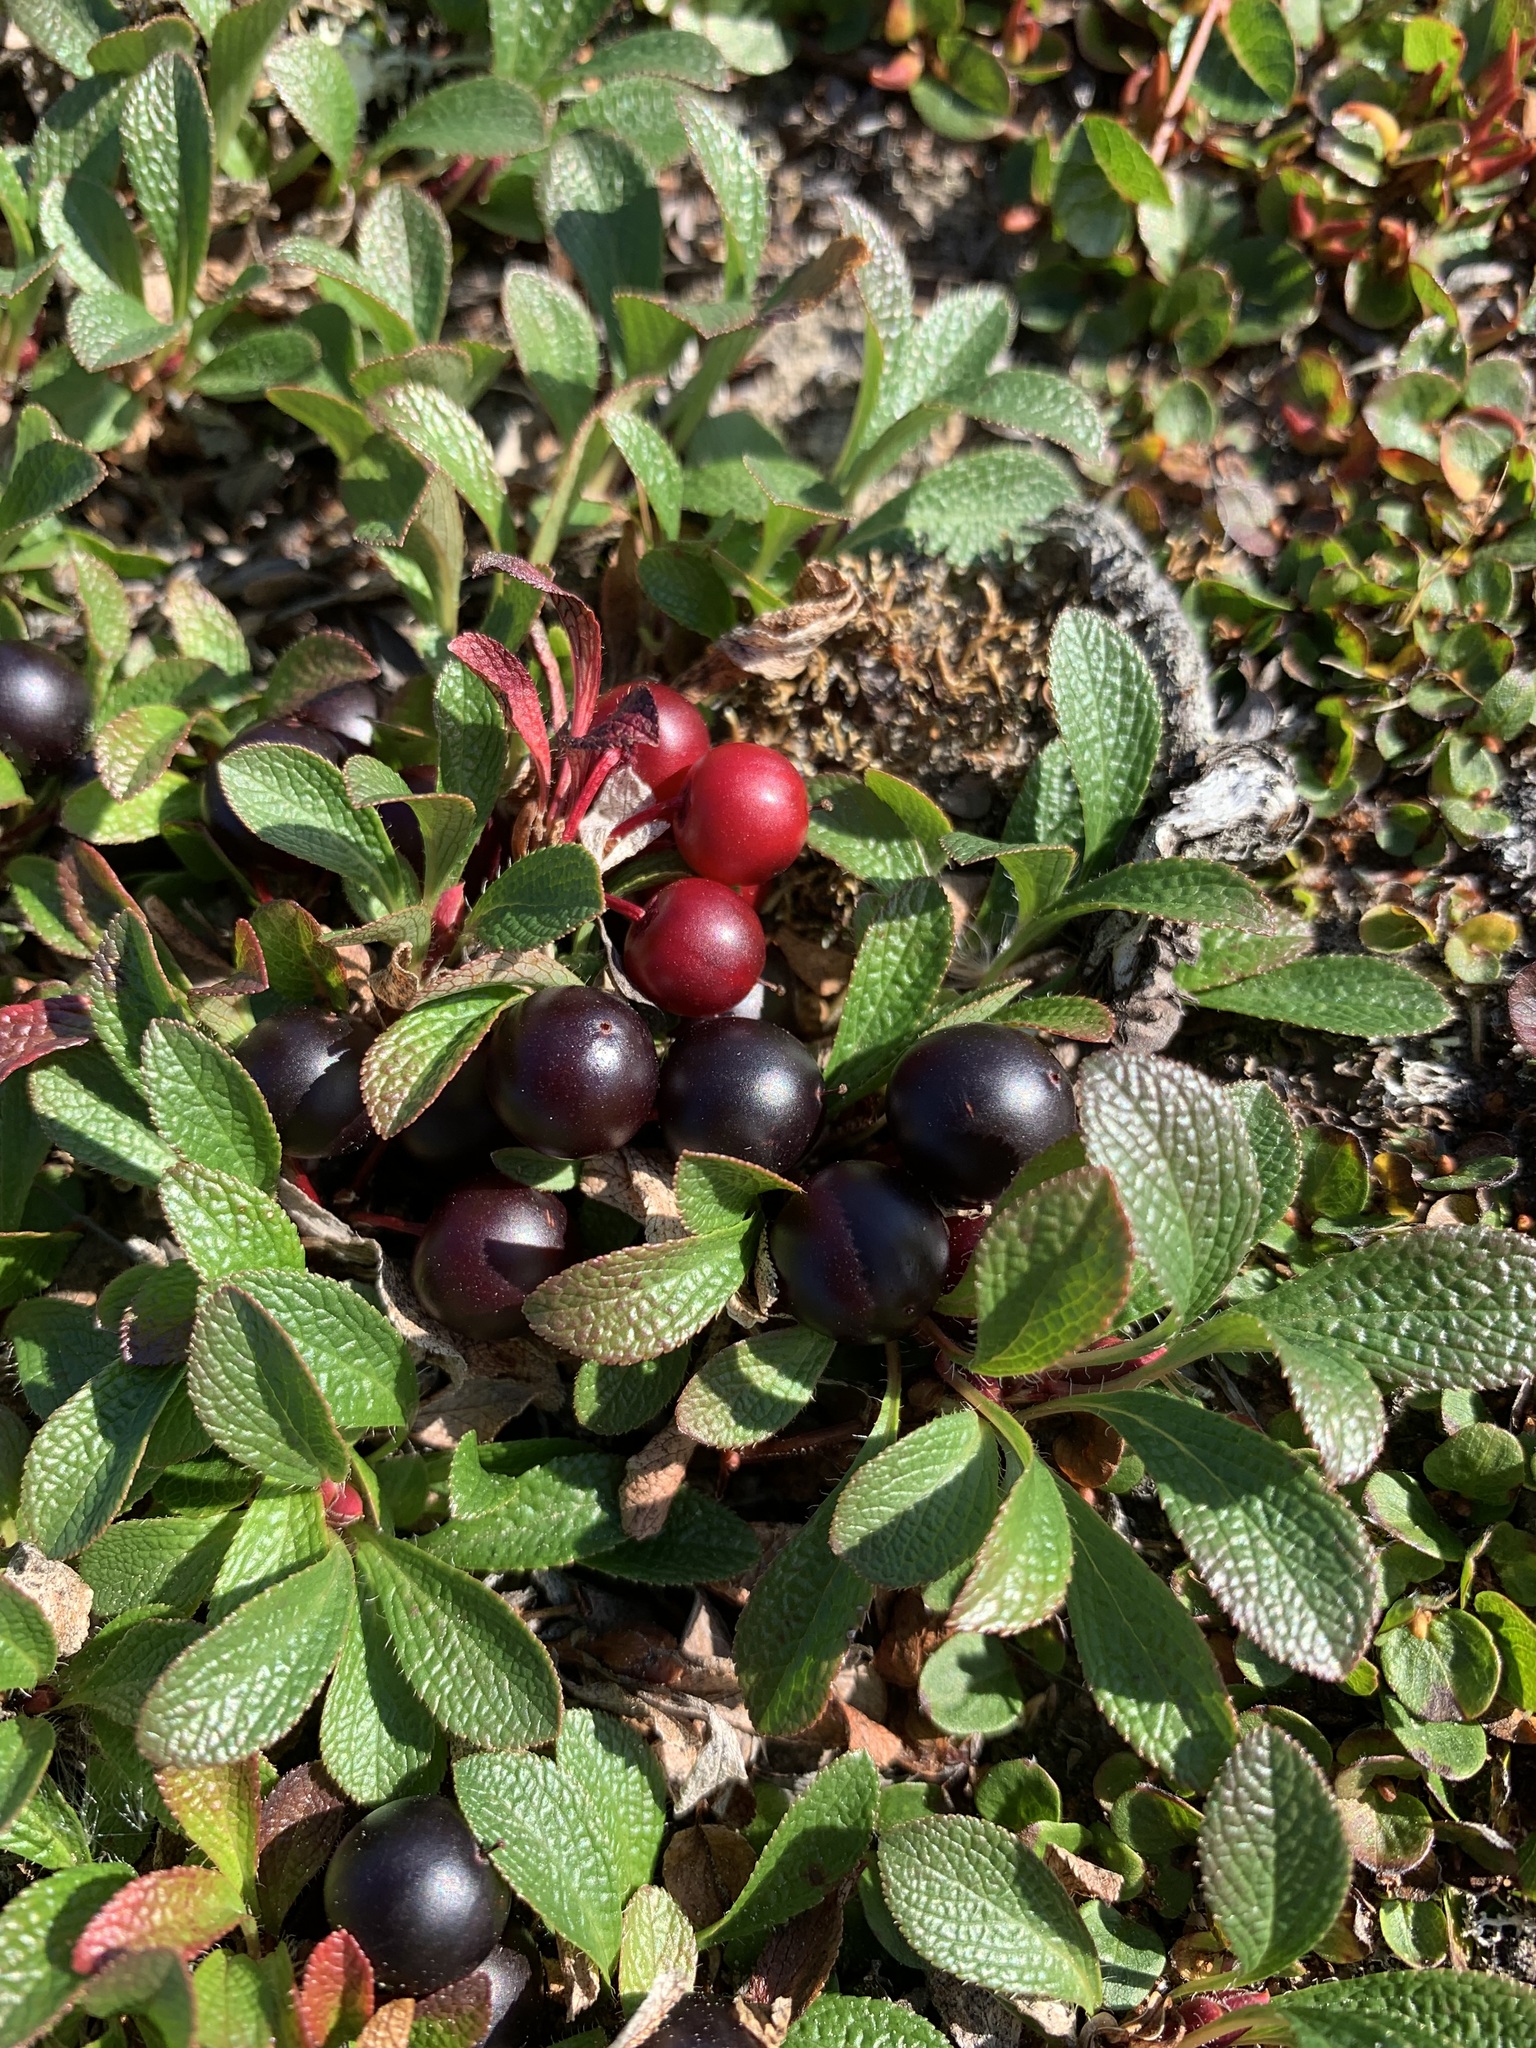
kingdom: Plantae
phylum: Tracheophyta
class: Magnoliopsida
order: Ericales
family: Ericaceae
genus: Arctostaphylos
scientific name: Arctostaphylos alpinus
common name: Alpine bearberry
